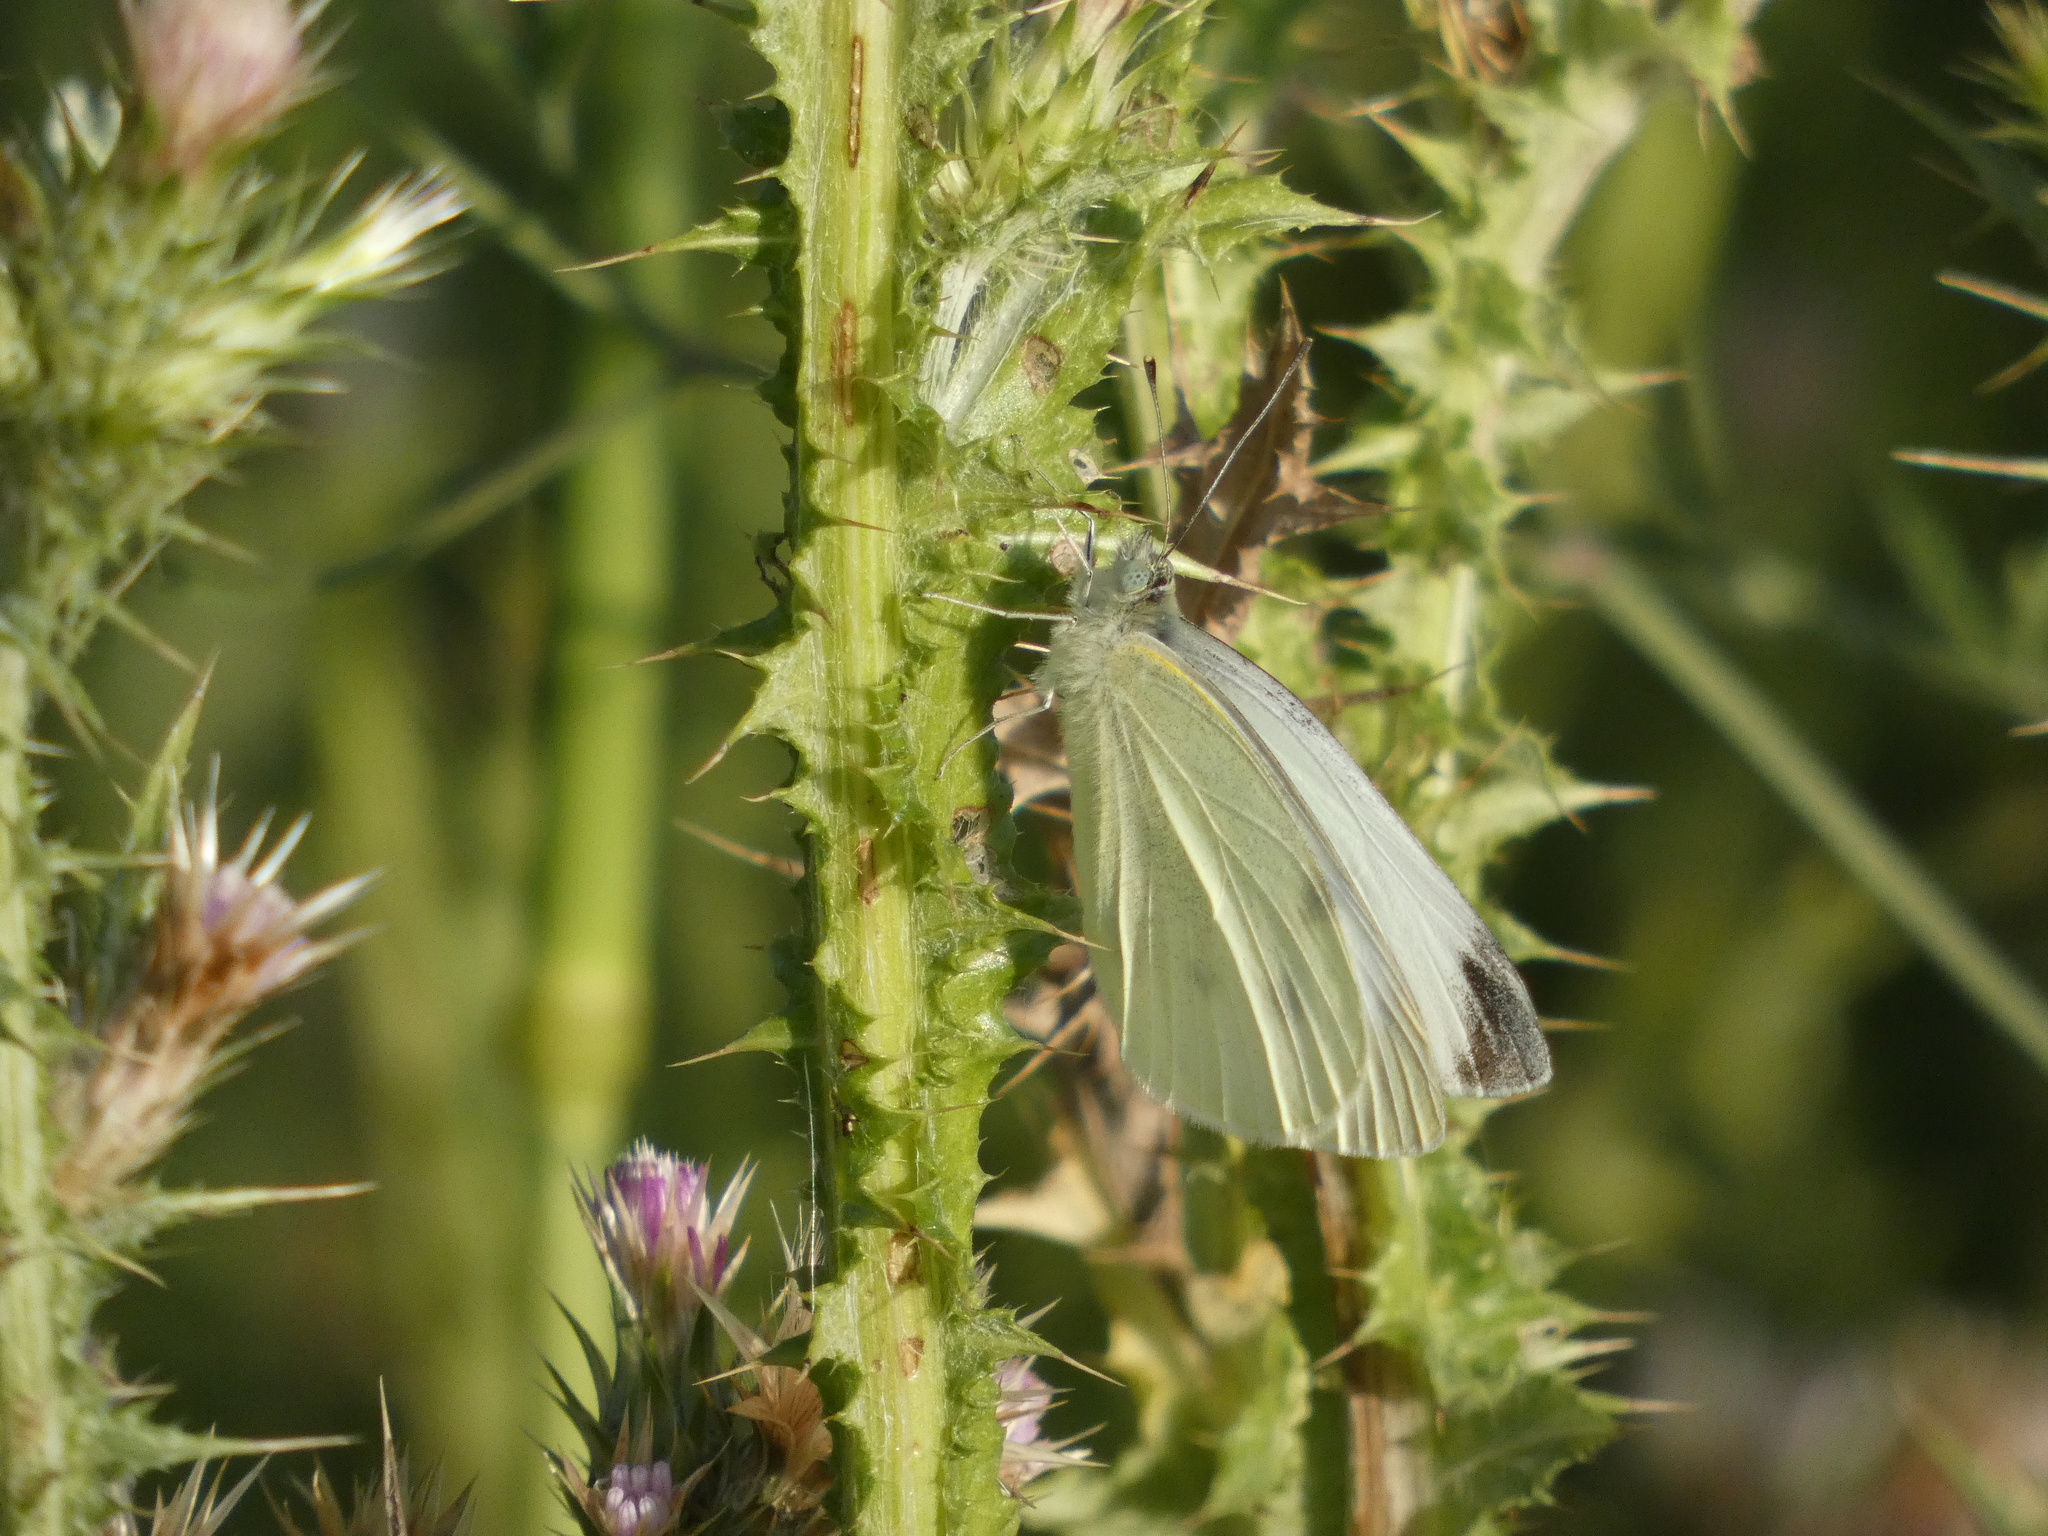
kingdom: Animalia
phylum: Arthropoda
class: Insecta
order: Lepidoptera
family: Pieridae
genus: Pieris
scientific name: Pieris rapae
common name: Small white
